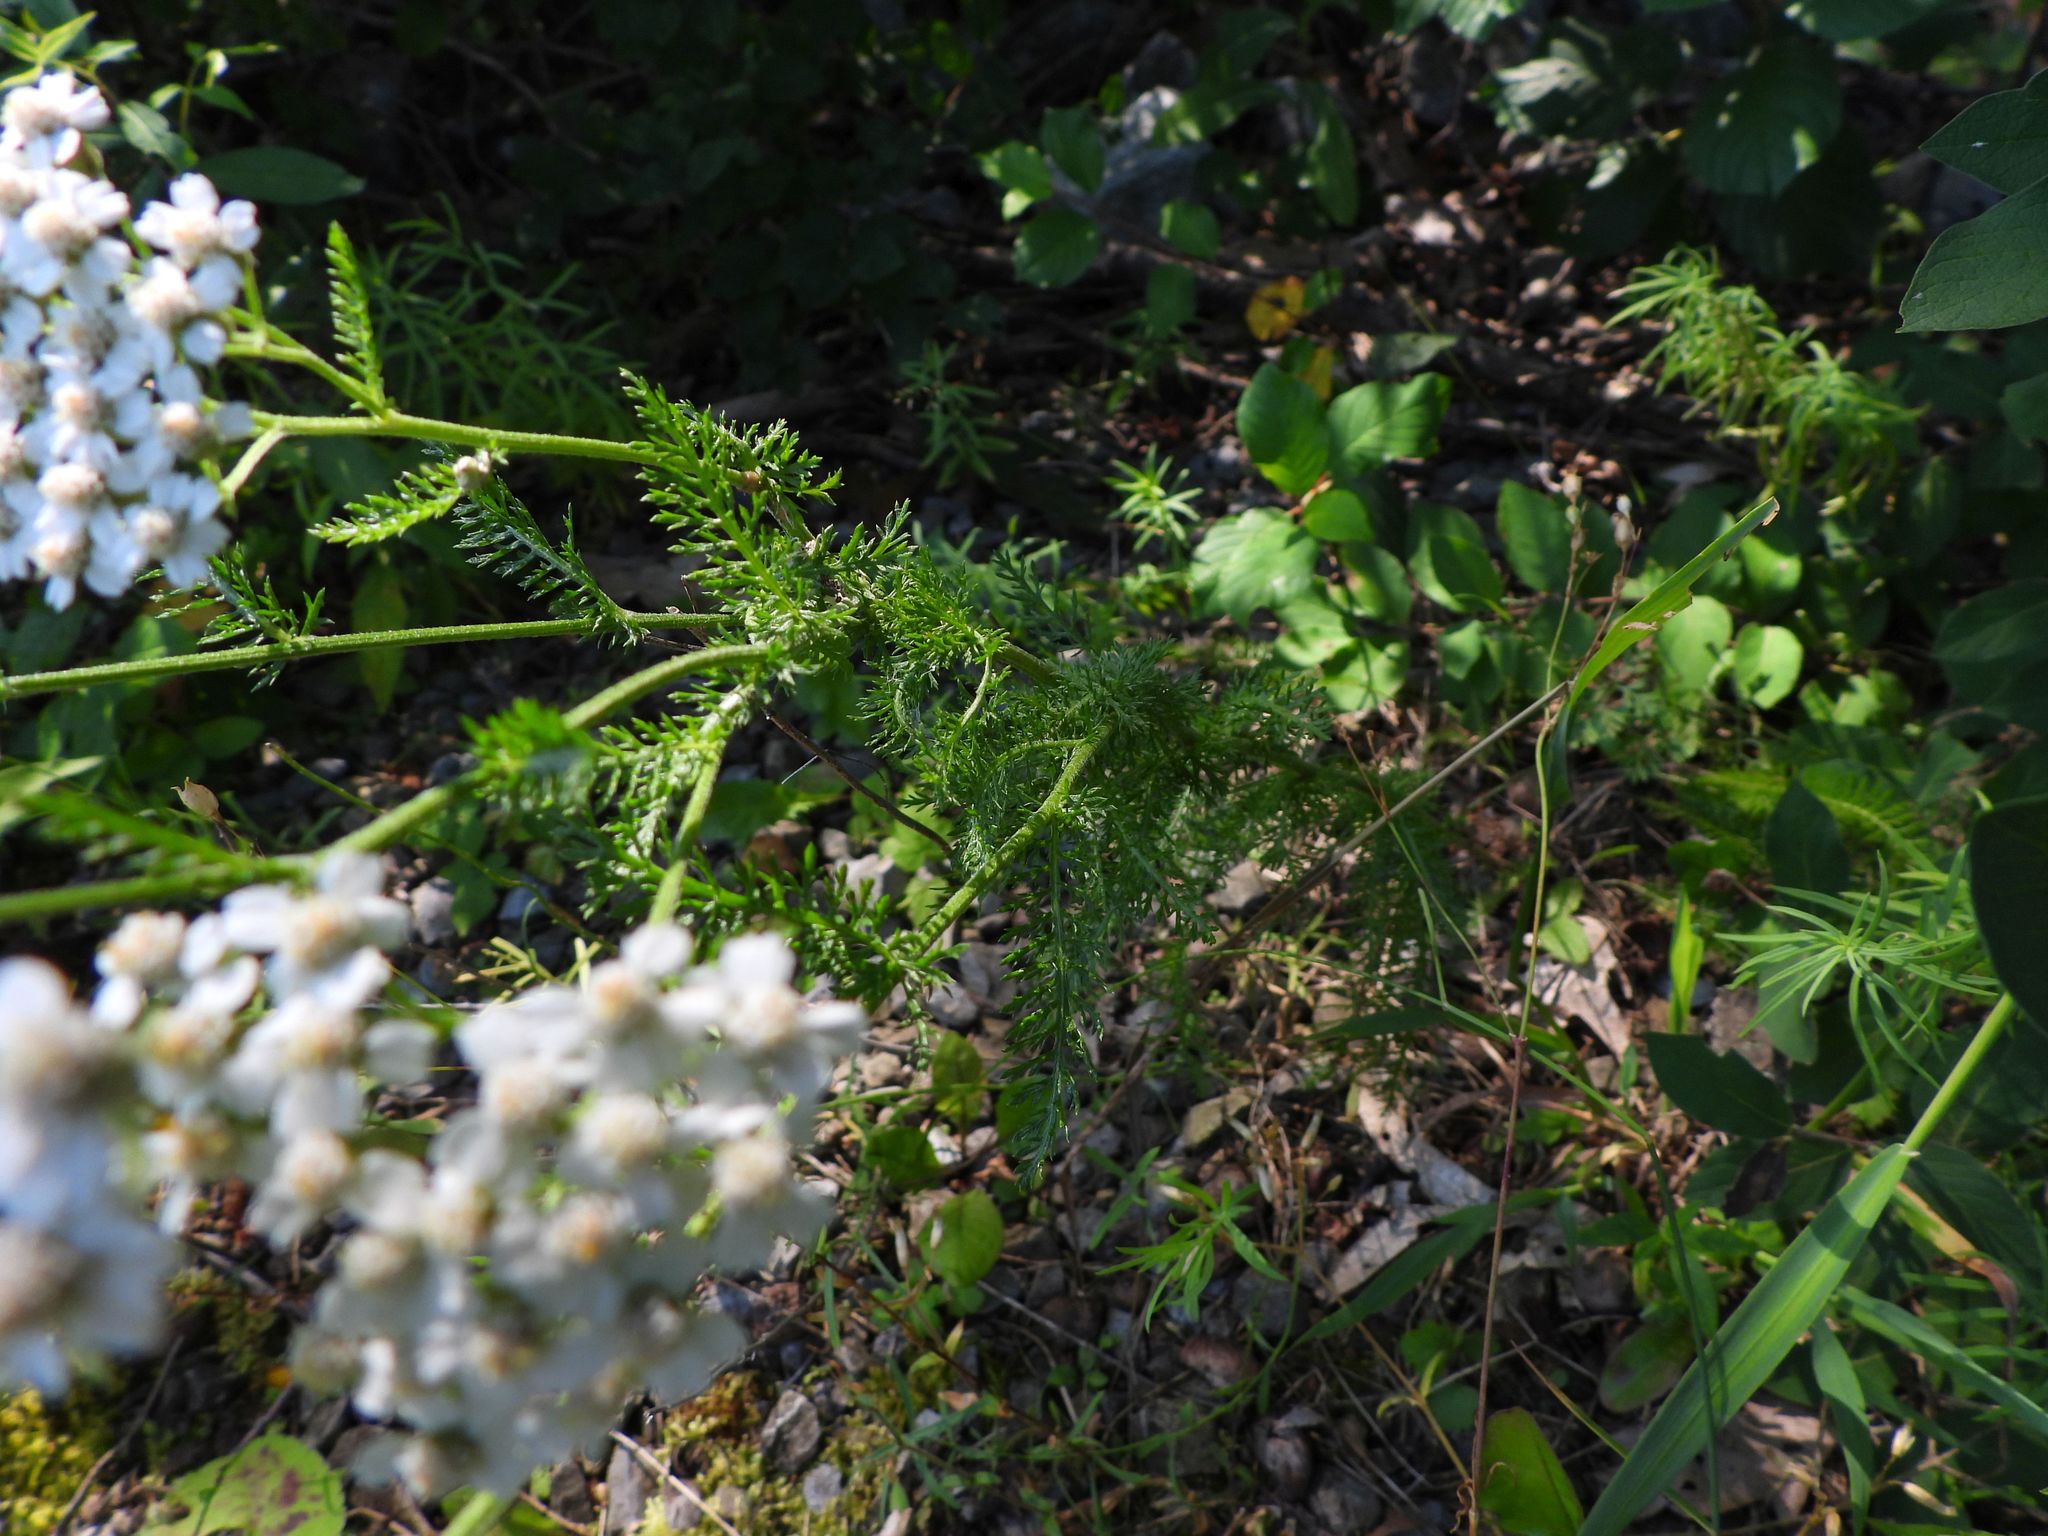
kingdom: Plantae
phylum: Tracheophyta
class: Magnoliopsida
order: Asterales
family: Asteraceae
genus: Achillea
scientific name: Achillea millefolium
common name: Yarrow
